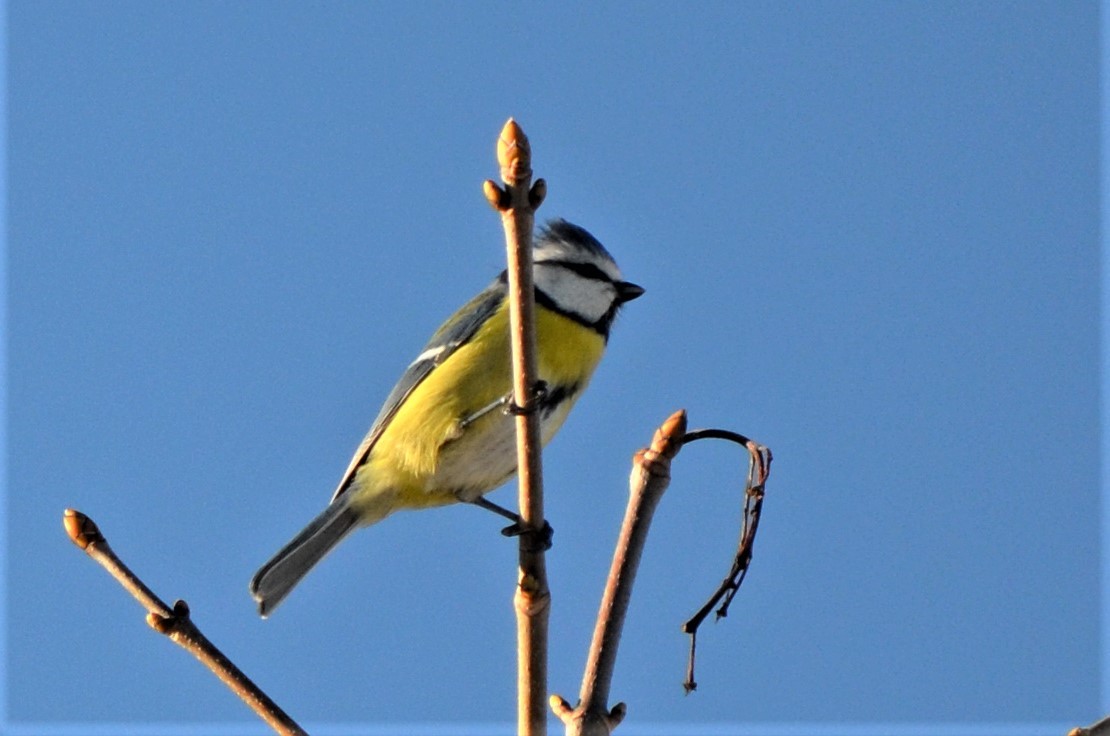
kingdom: Animalia
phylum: Chordata
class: Aves
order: Passeriformes
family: Paridae
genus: Cyanistes
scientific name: Cyanistes caeruleus
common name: Eurasian blue tit
